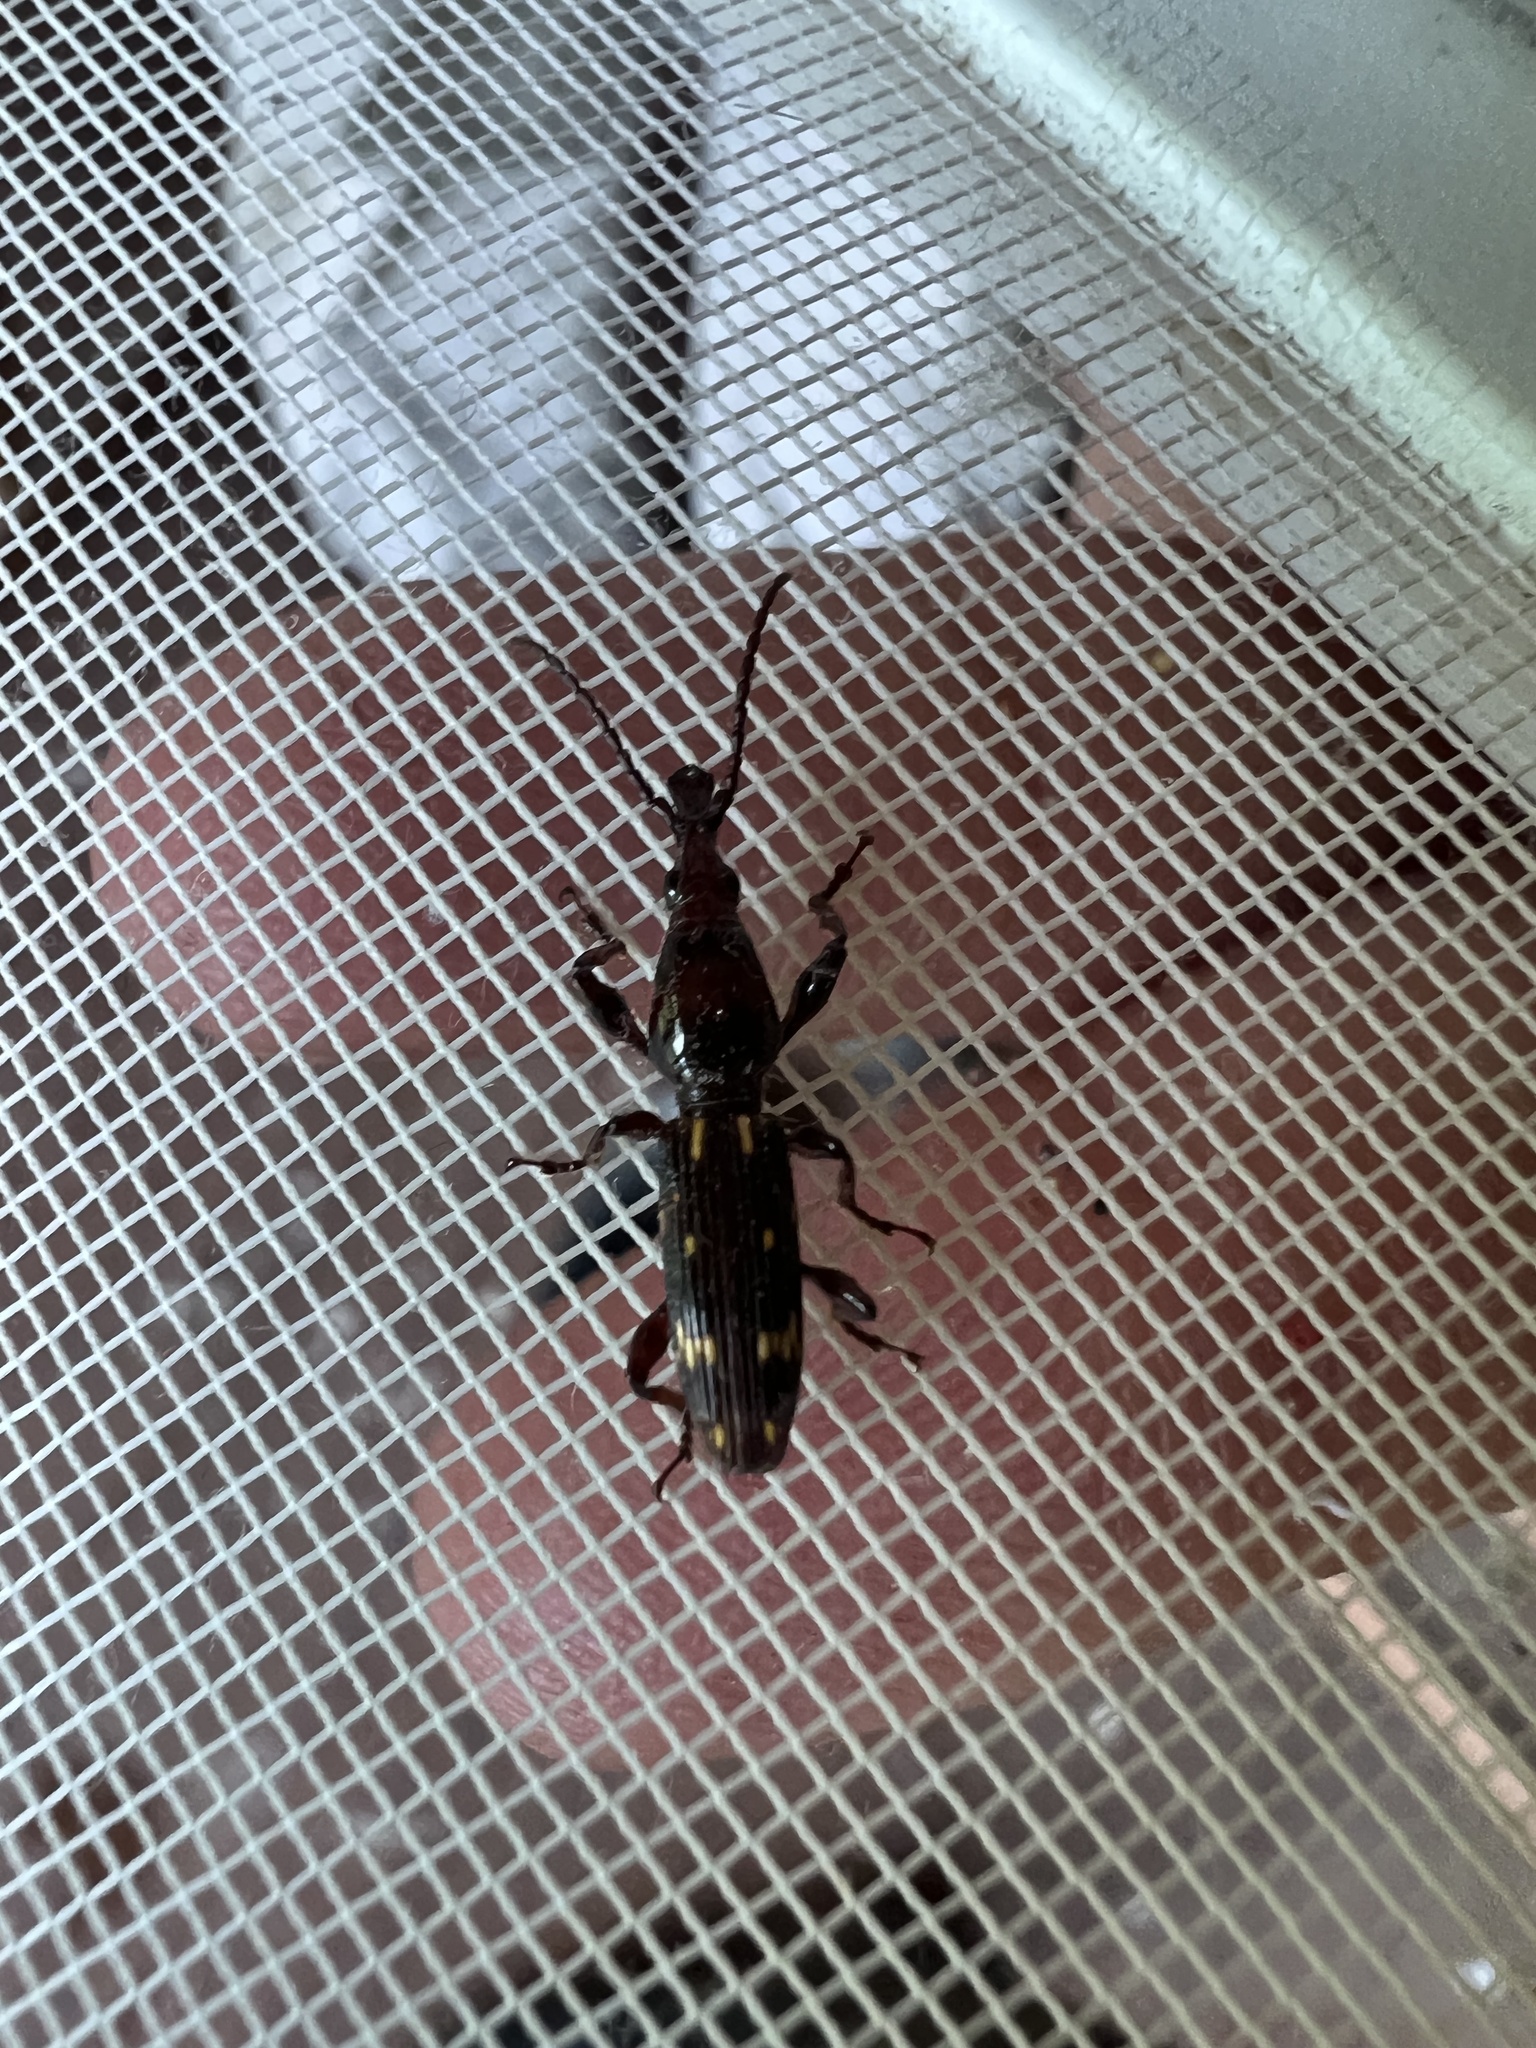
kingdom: Animalia
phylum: Arthropoda
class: Insecta
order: Coleoptera
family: Brentidae
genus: Arrenodes
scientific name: Arrenodes minutus
